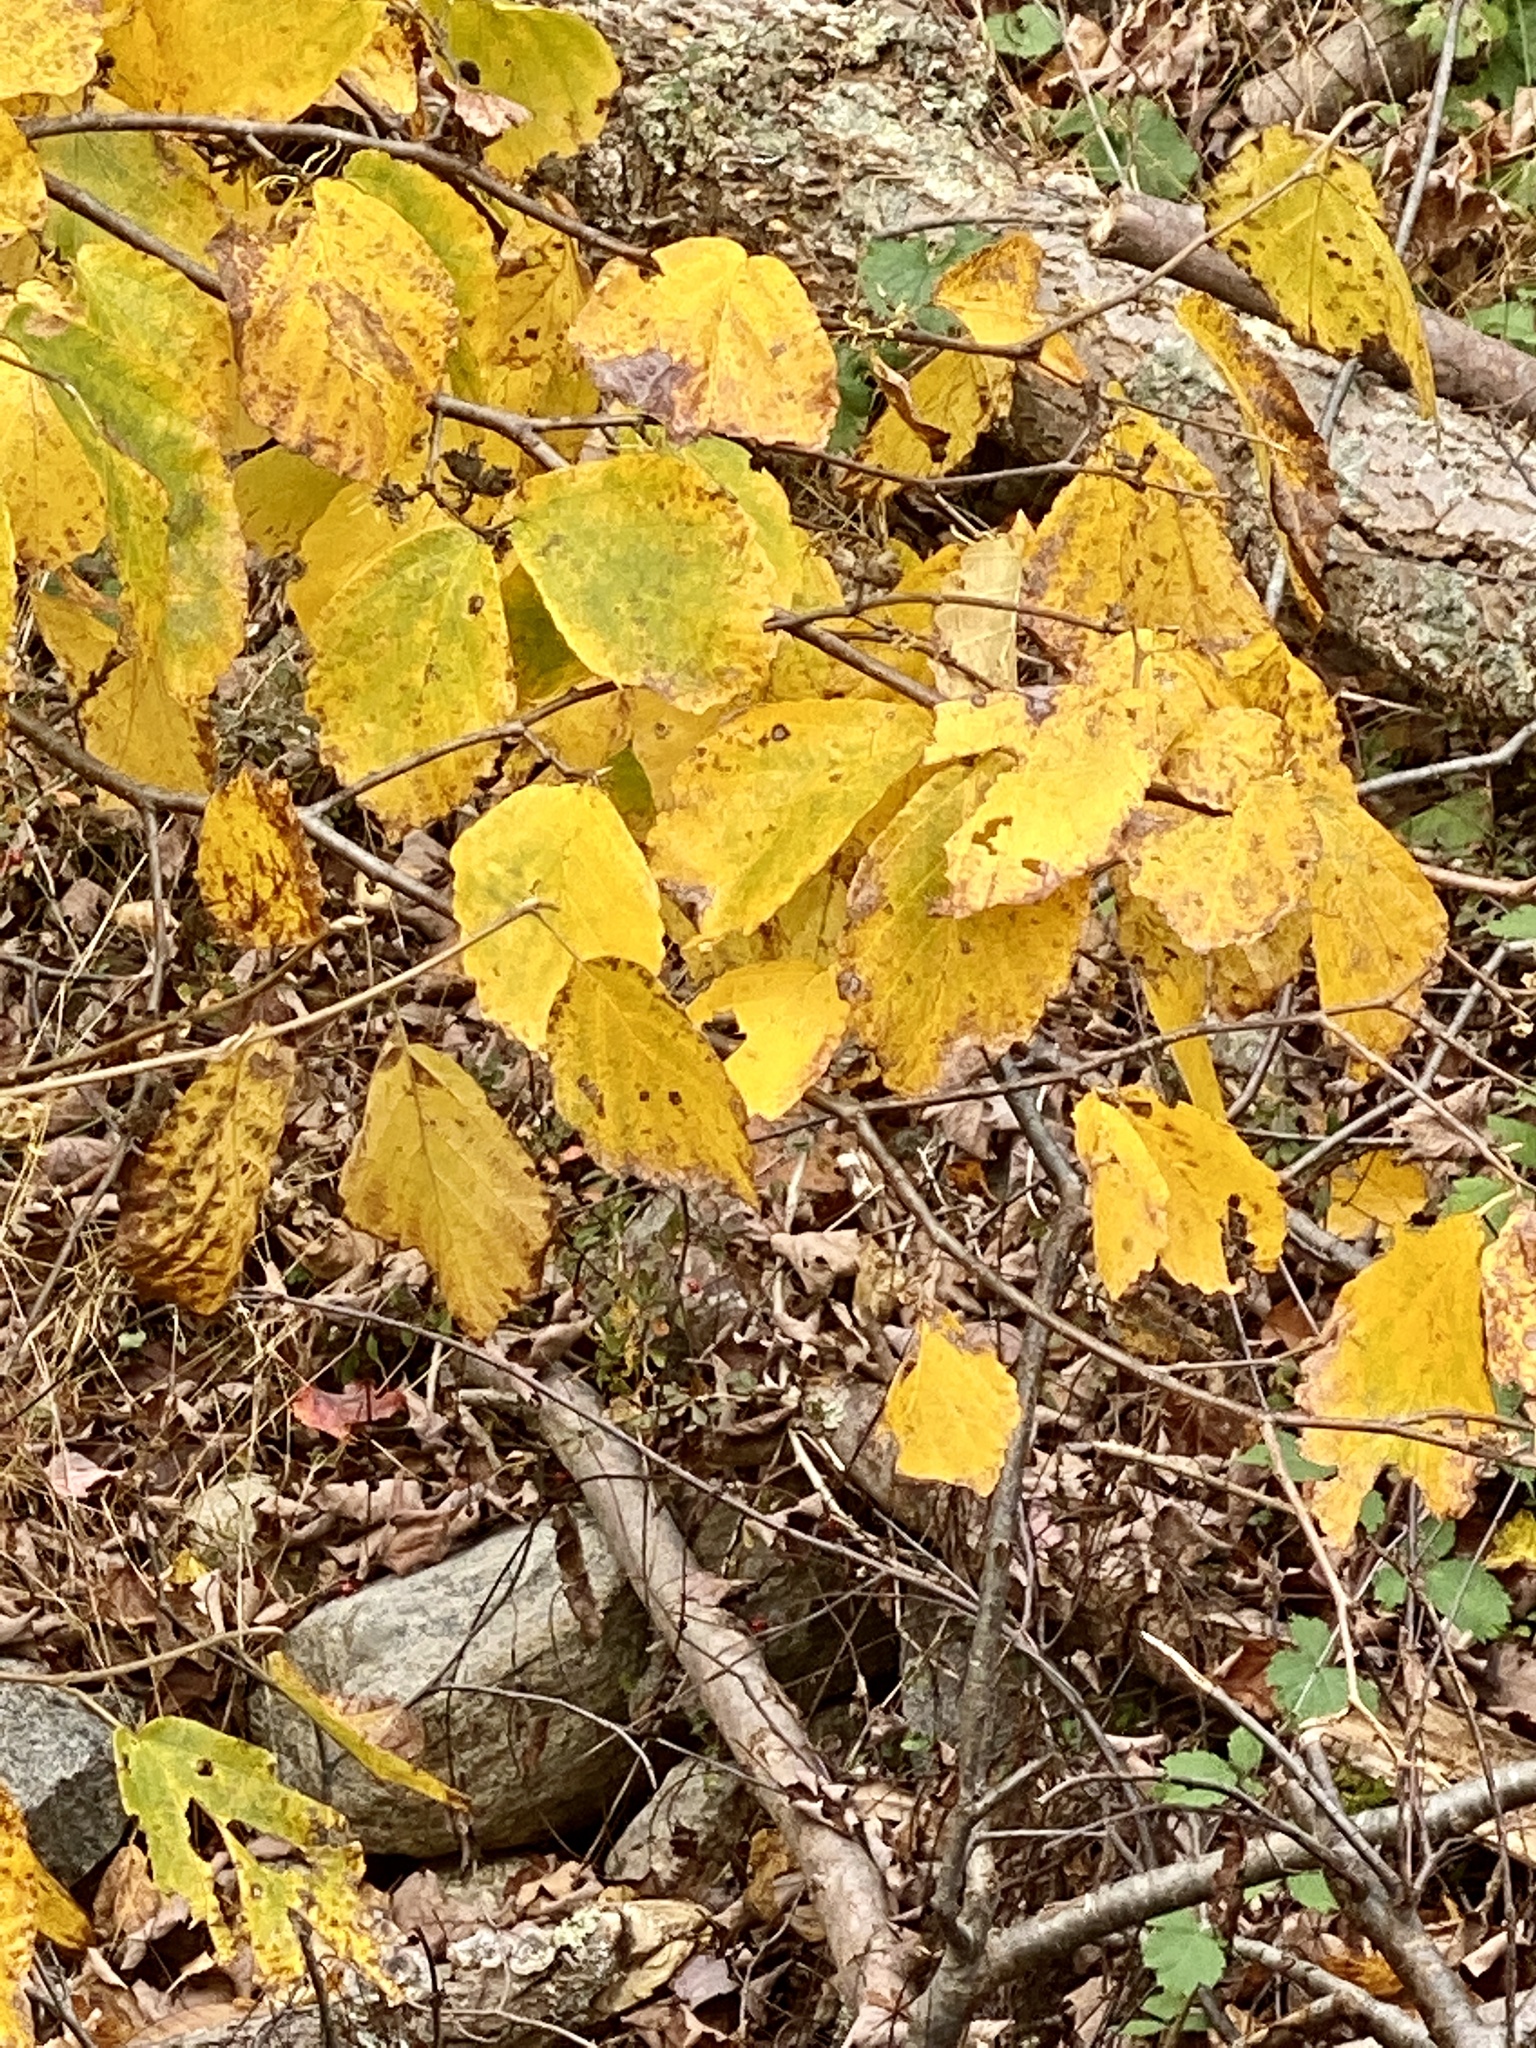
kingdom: Plantae
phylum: Tracheophyta
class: Magnoliopsida
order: Saxifragales
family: Hamamelidaceae
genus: Hamamelis
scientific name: Hamamelis virginiana
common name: Witch-hazel
